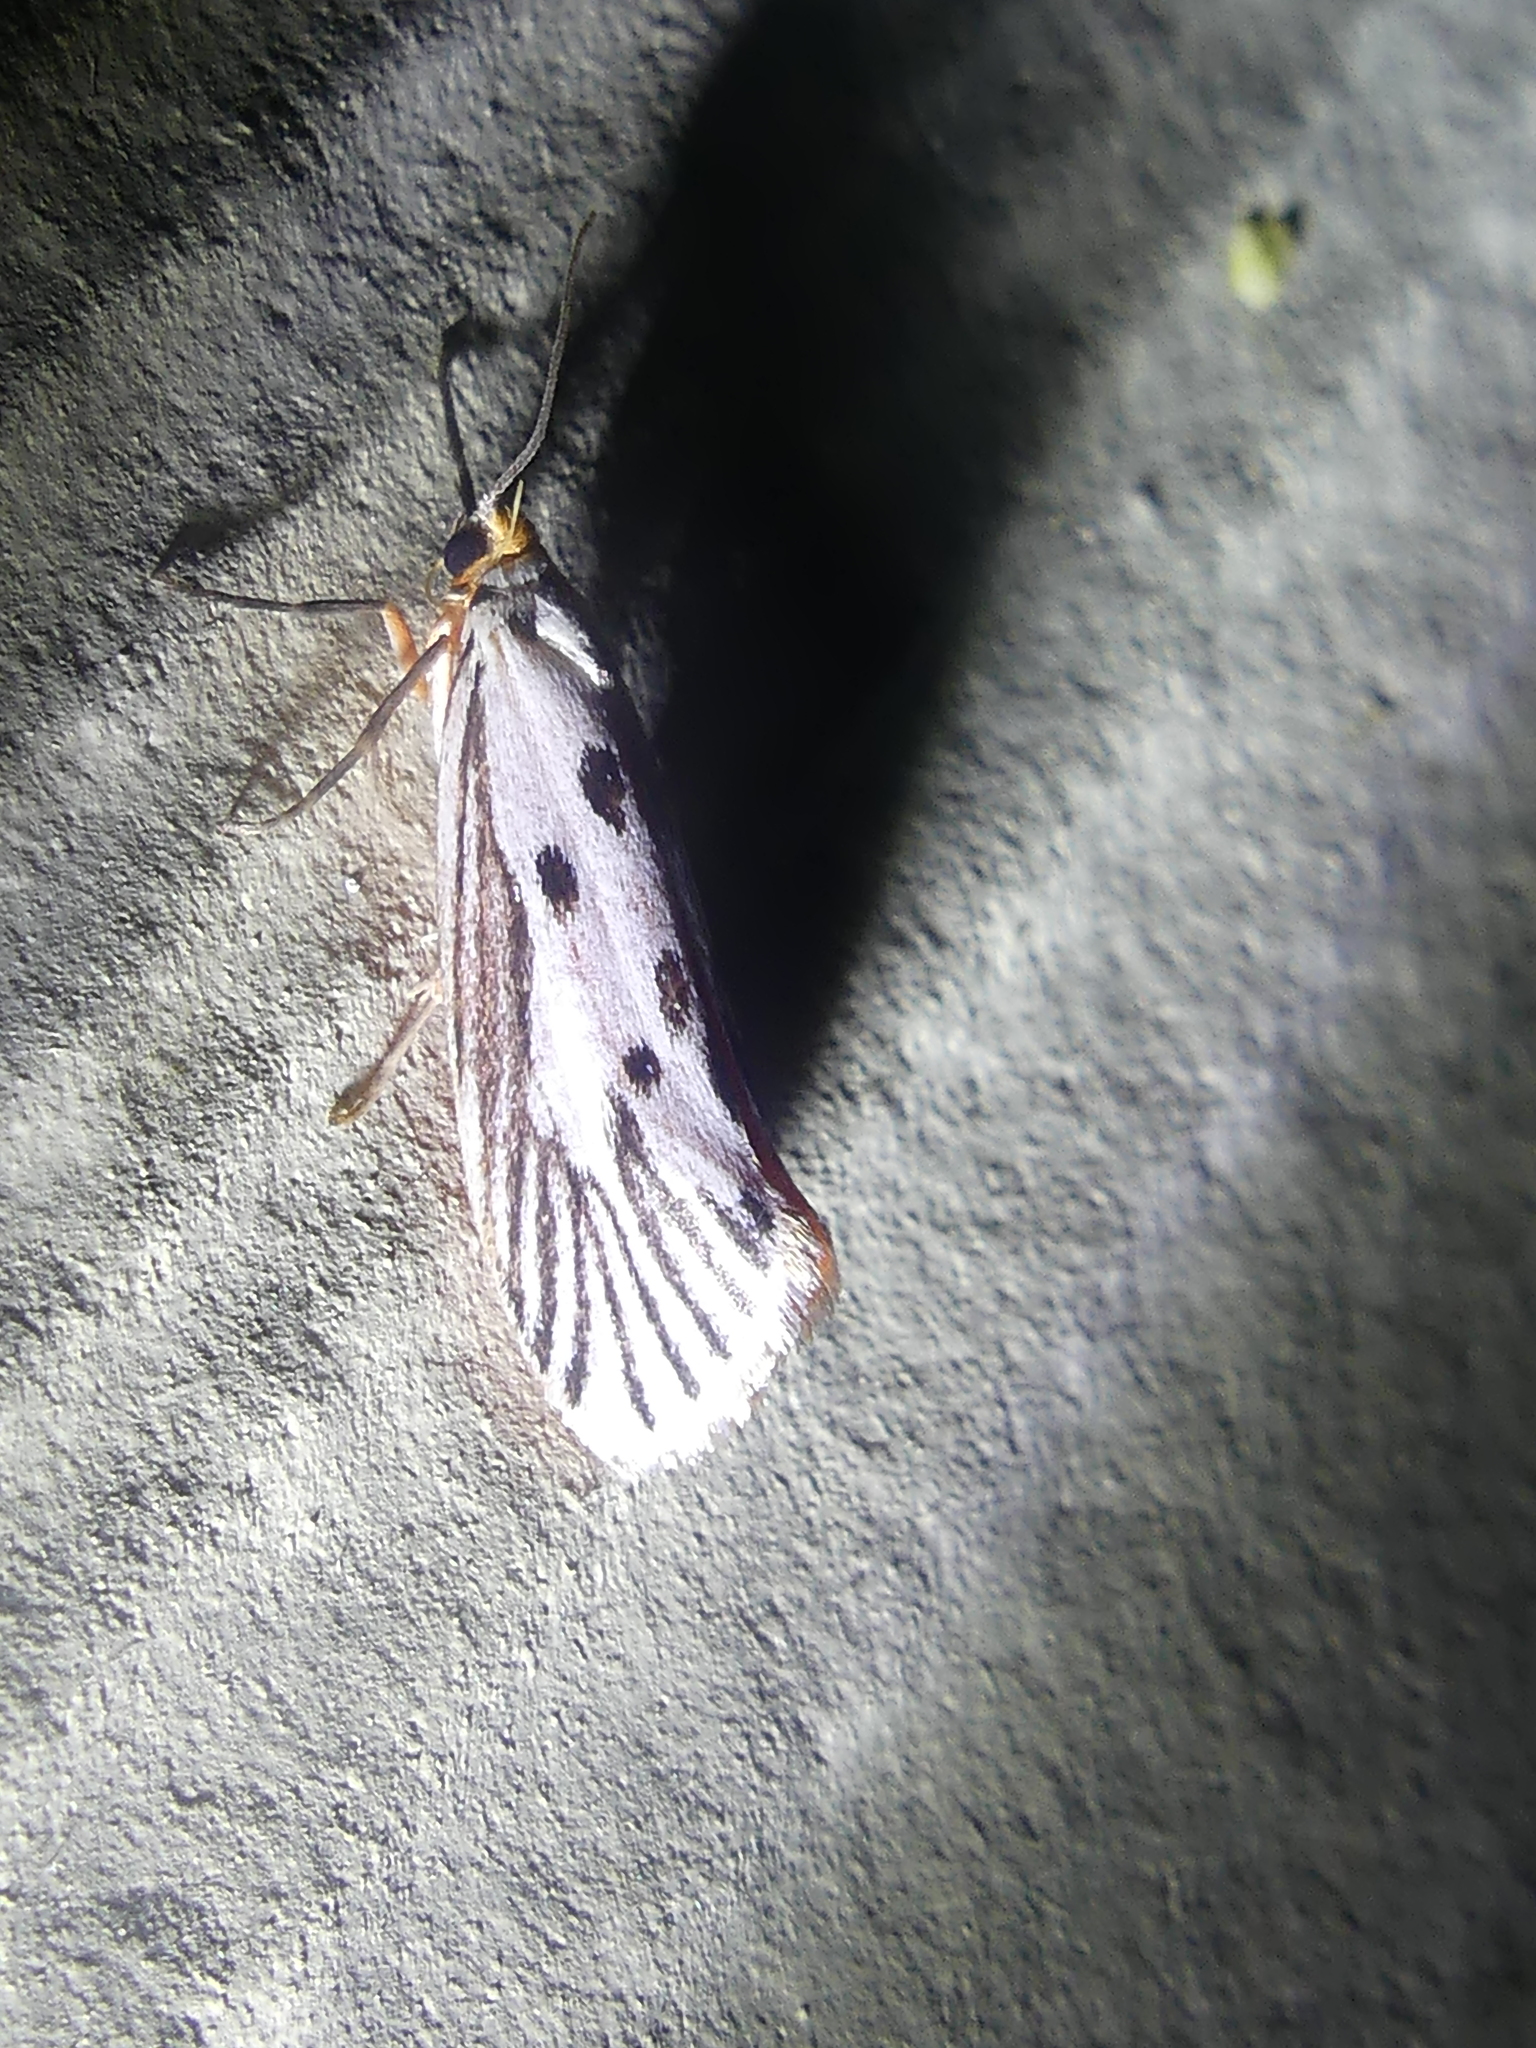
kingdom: Animalia
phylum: Arthropoda
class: Insecta
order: Lepidoptera
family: Lacturidae
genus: Lactura
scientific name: Lactura
